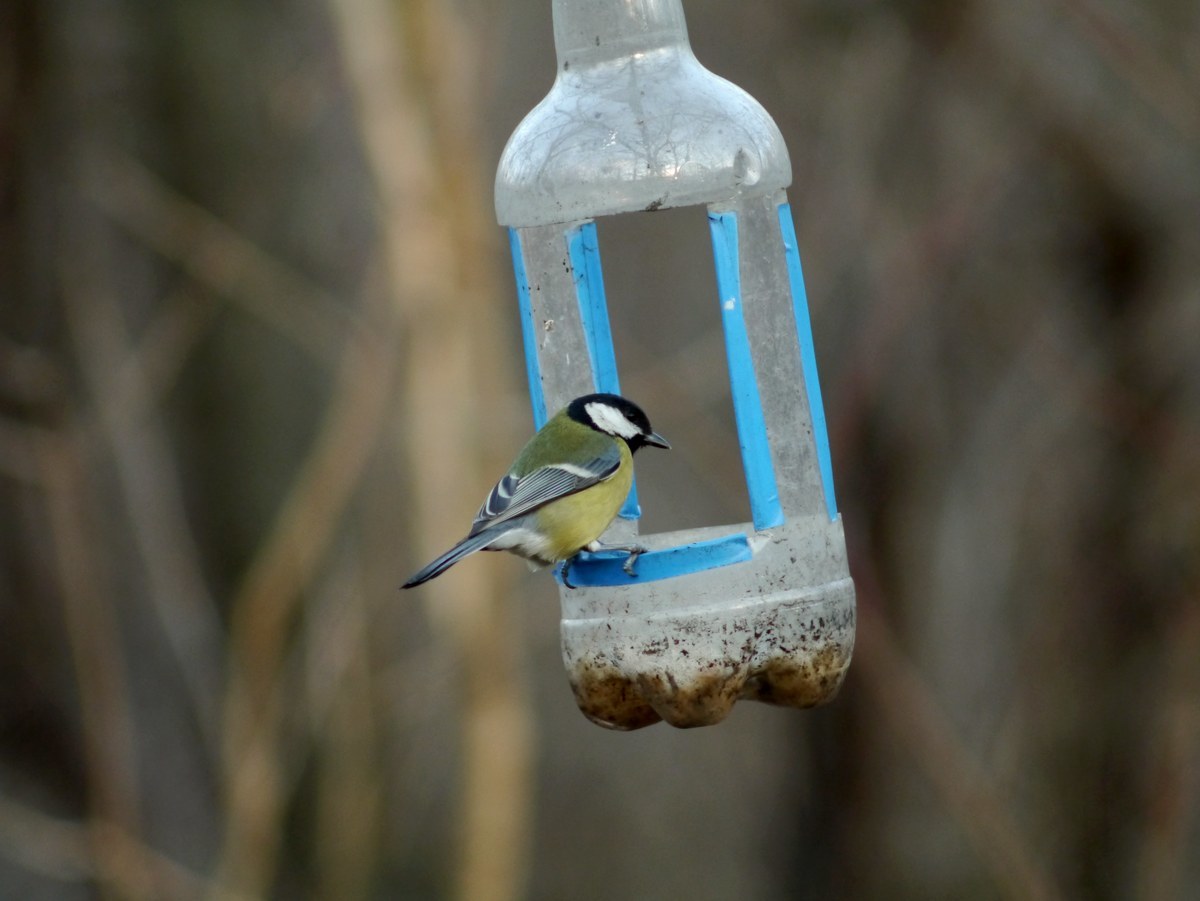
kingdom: Animalia
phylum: Chordata
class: Aves
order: Passeriformes
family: Paridae
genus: Parus
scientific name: Parus major
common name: Great tit
